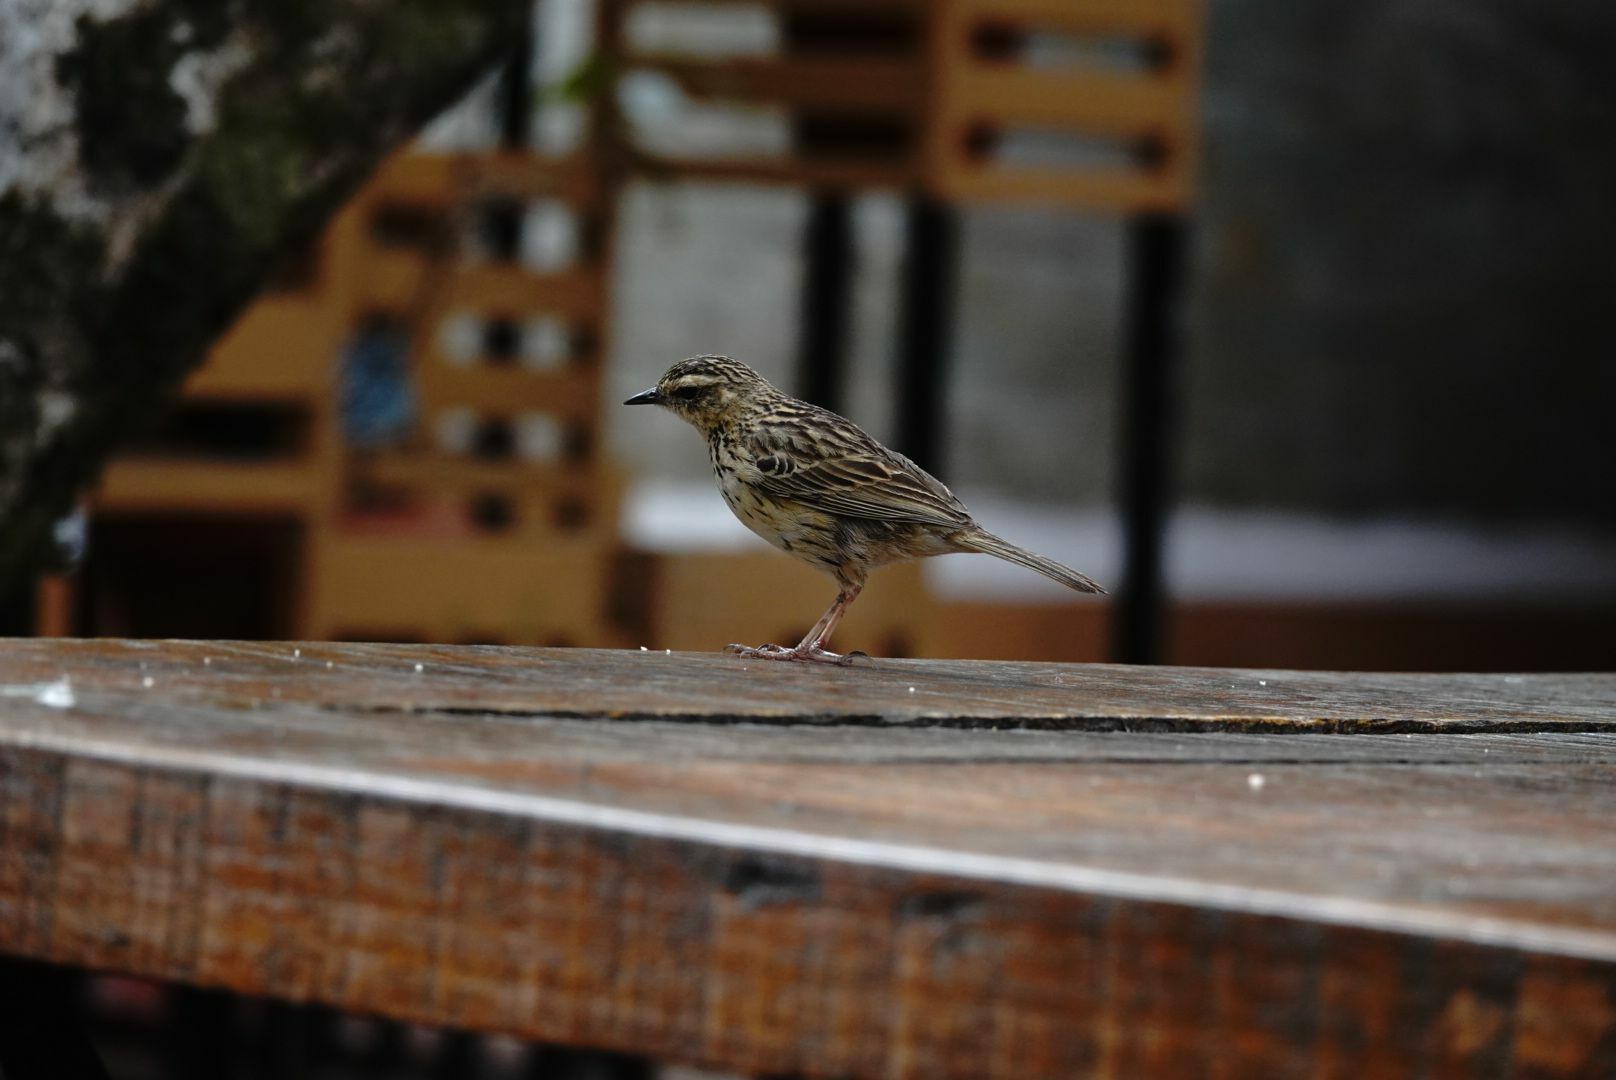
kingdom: Animalia
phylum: Chordata
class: Aves
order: Passeriformes
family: Motacillidae
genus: Anthus
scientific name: Anthus nilghiriensis
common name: Nilgiri pipit
